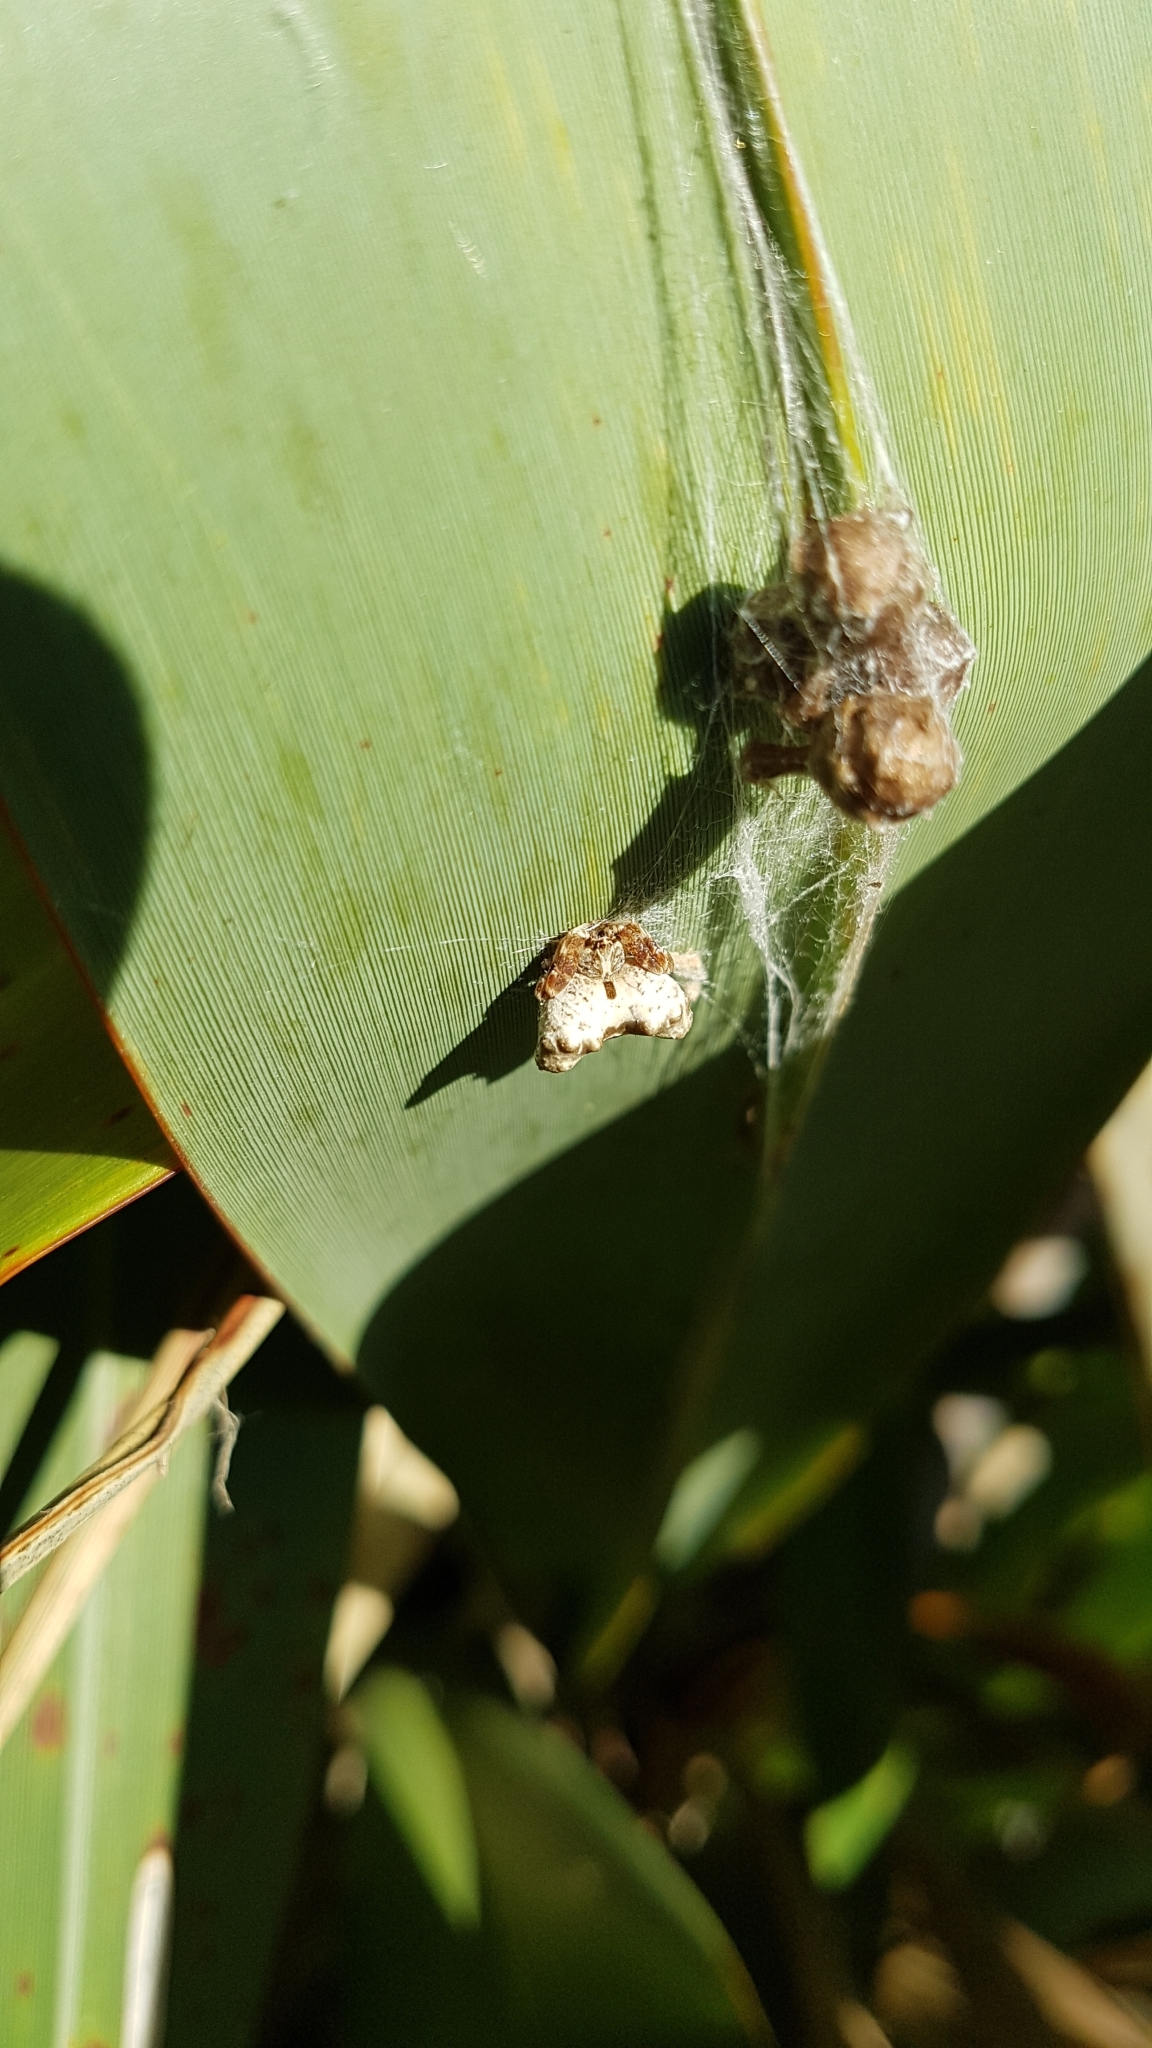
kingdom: Animalia
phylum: Arthropoda
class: Arachnida
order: Araneae
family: Araneidae
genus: Celaenia
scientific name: Celaenia olivacea
